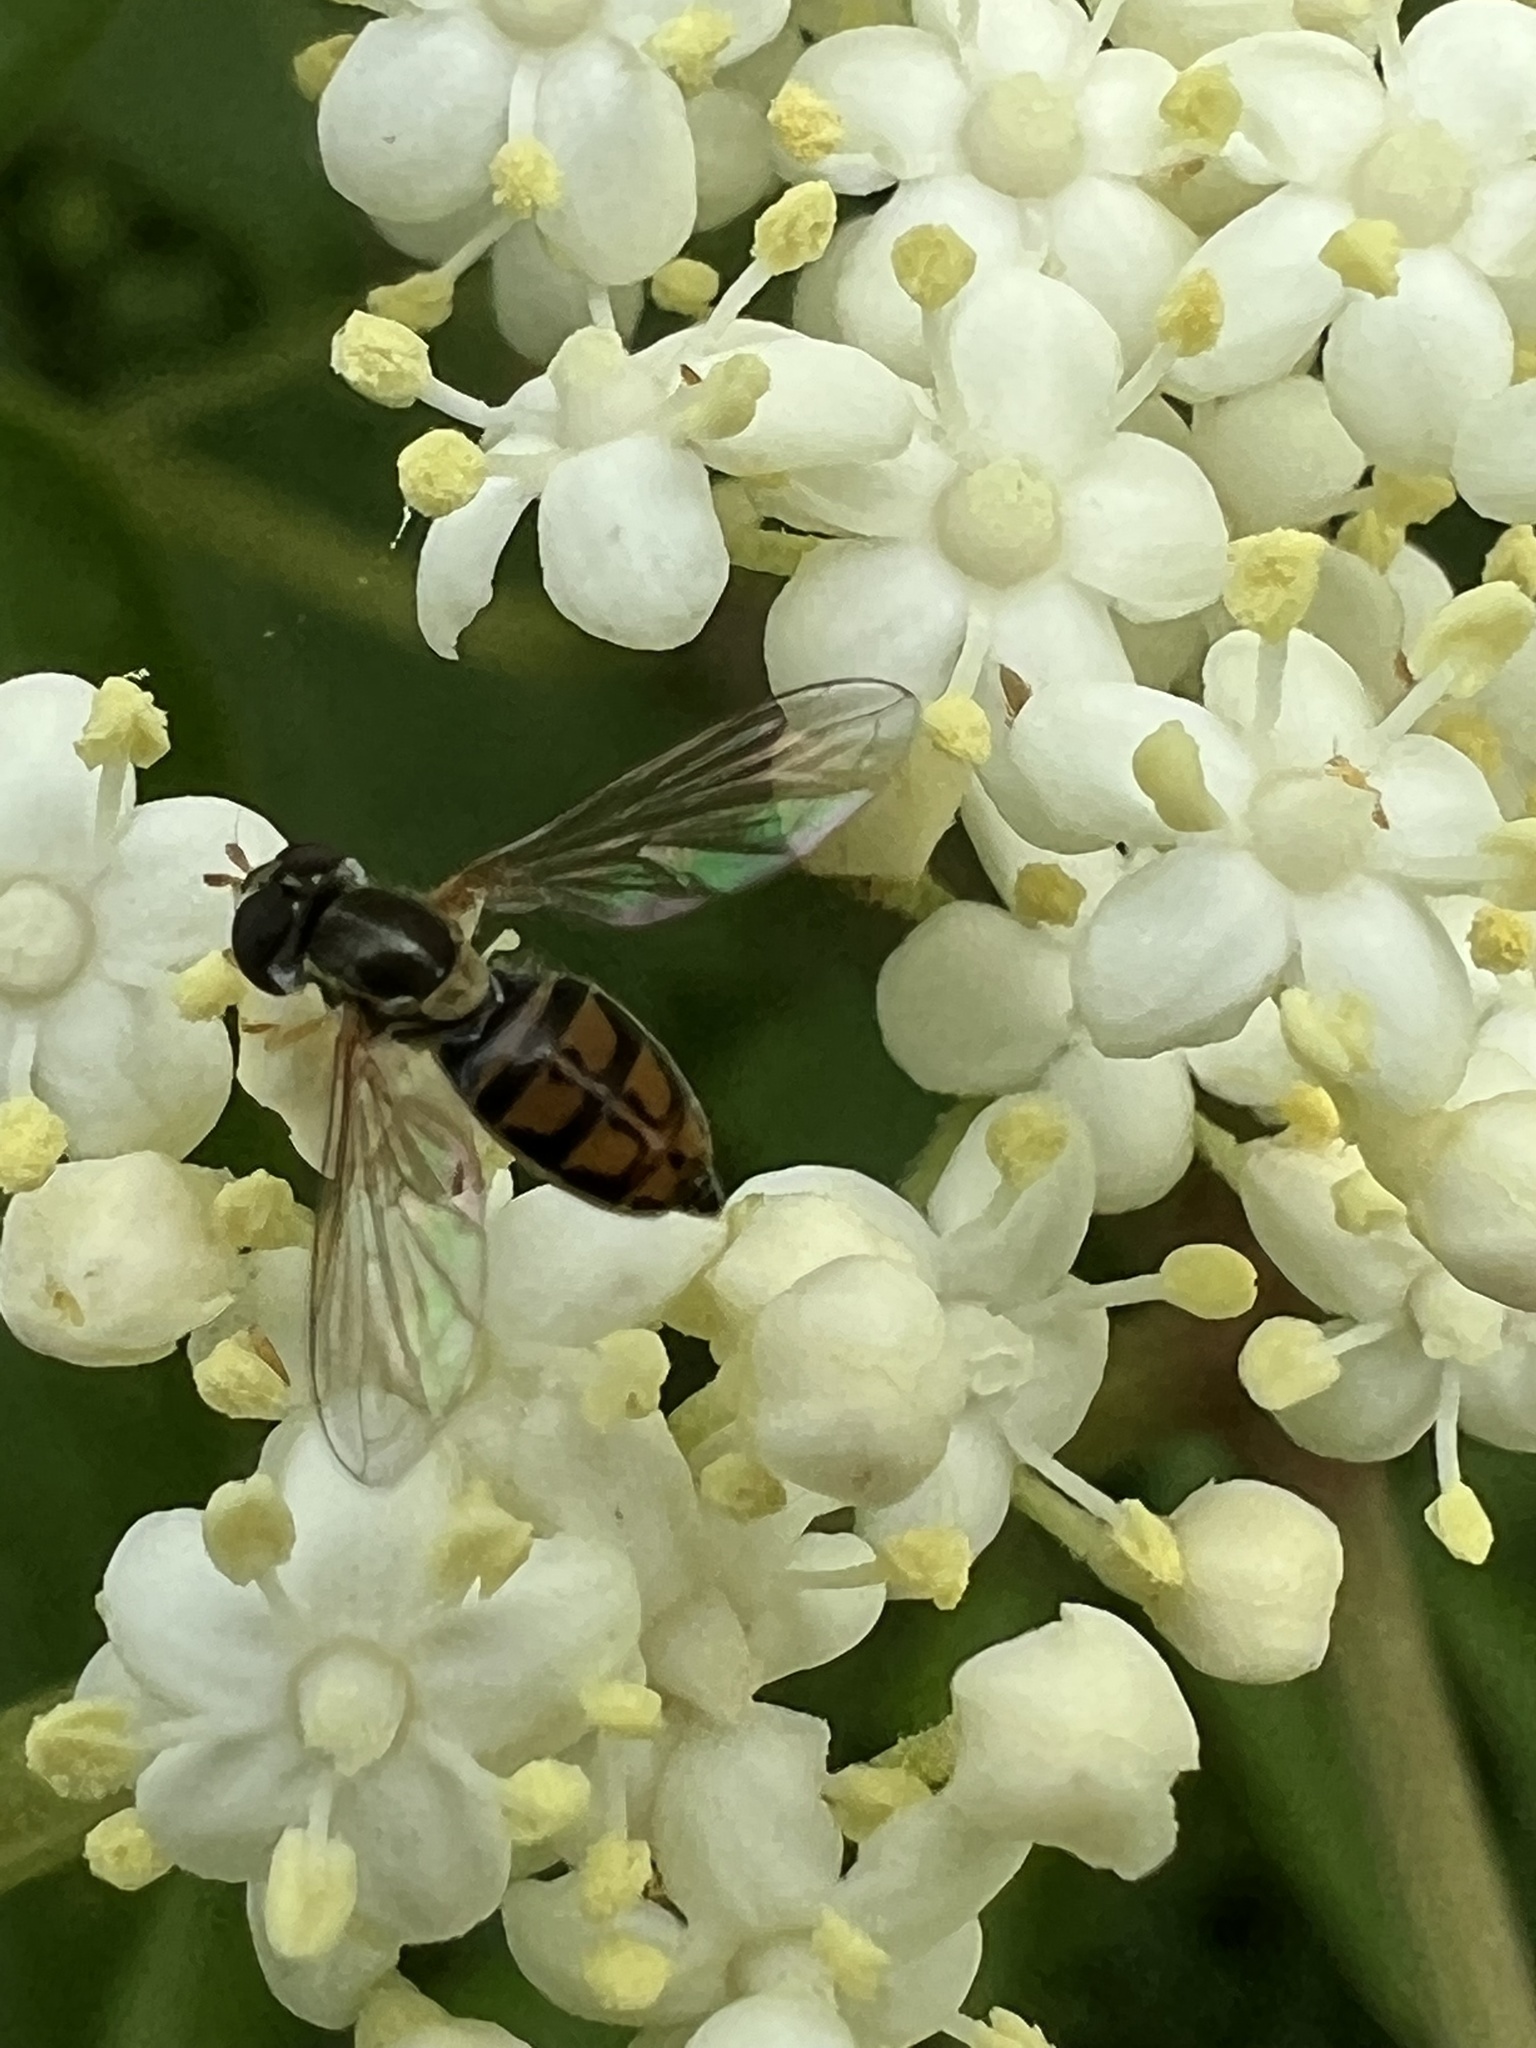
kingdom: Animalia
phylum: Arthropoda
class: Insecta
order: Diptera
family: Syrphidae
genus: Toxomerus
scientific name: Toxomerus marginatus
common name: Syrphid fly
